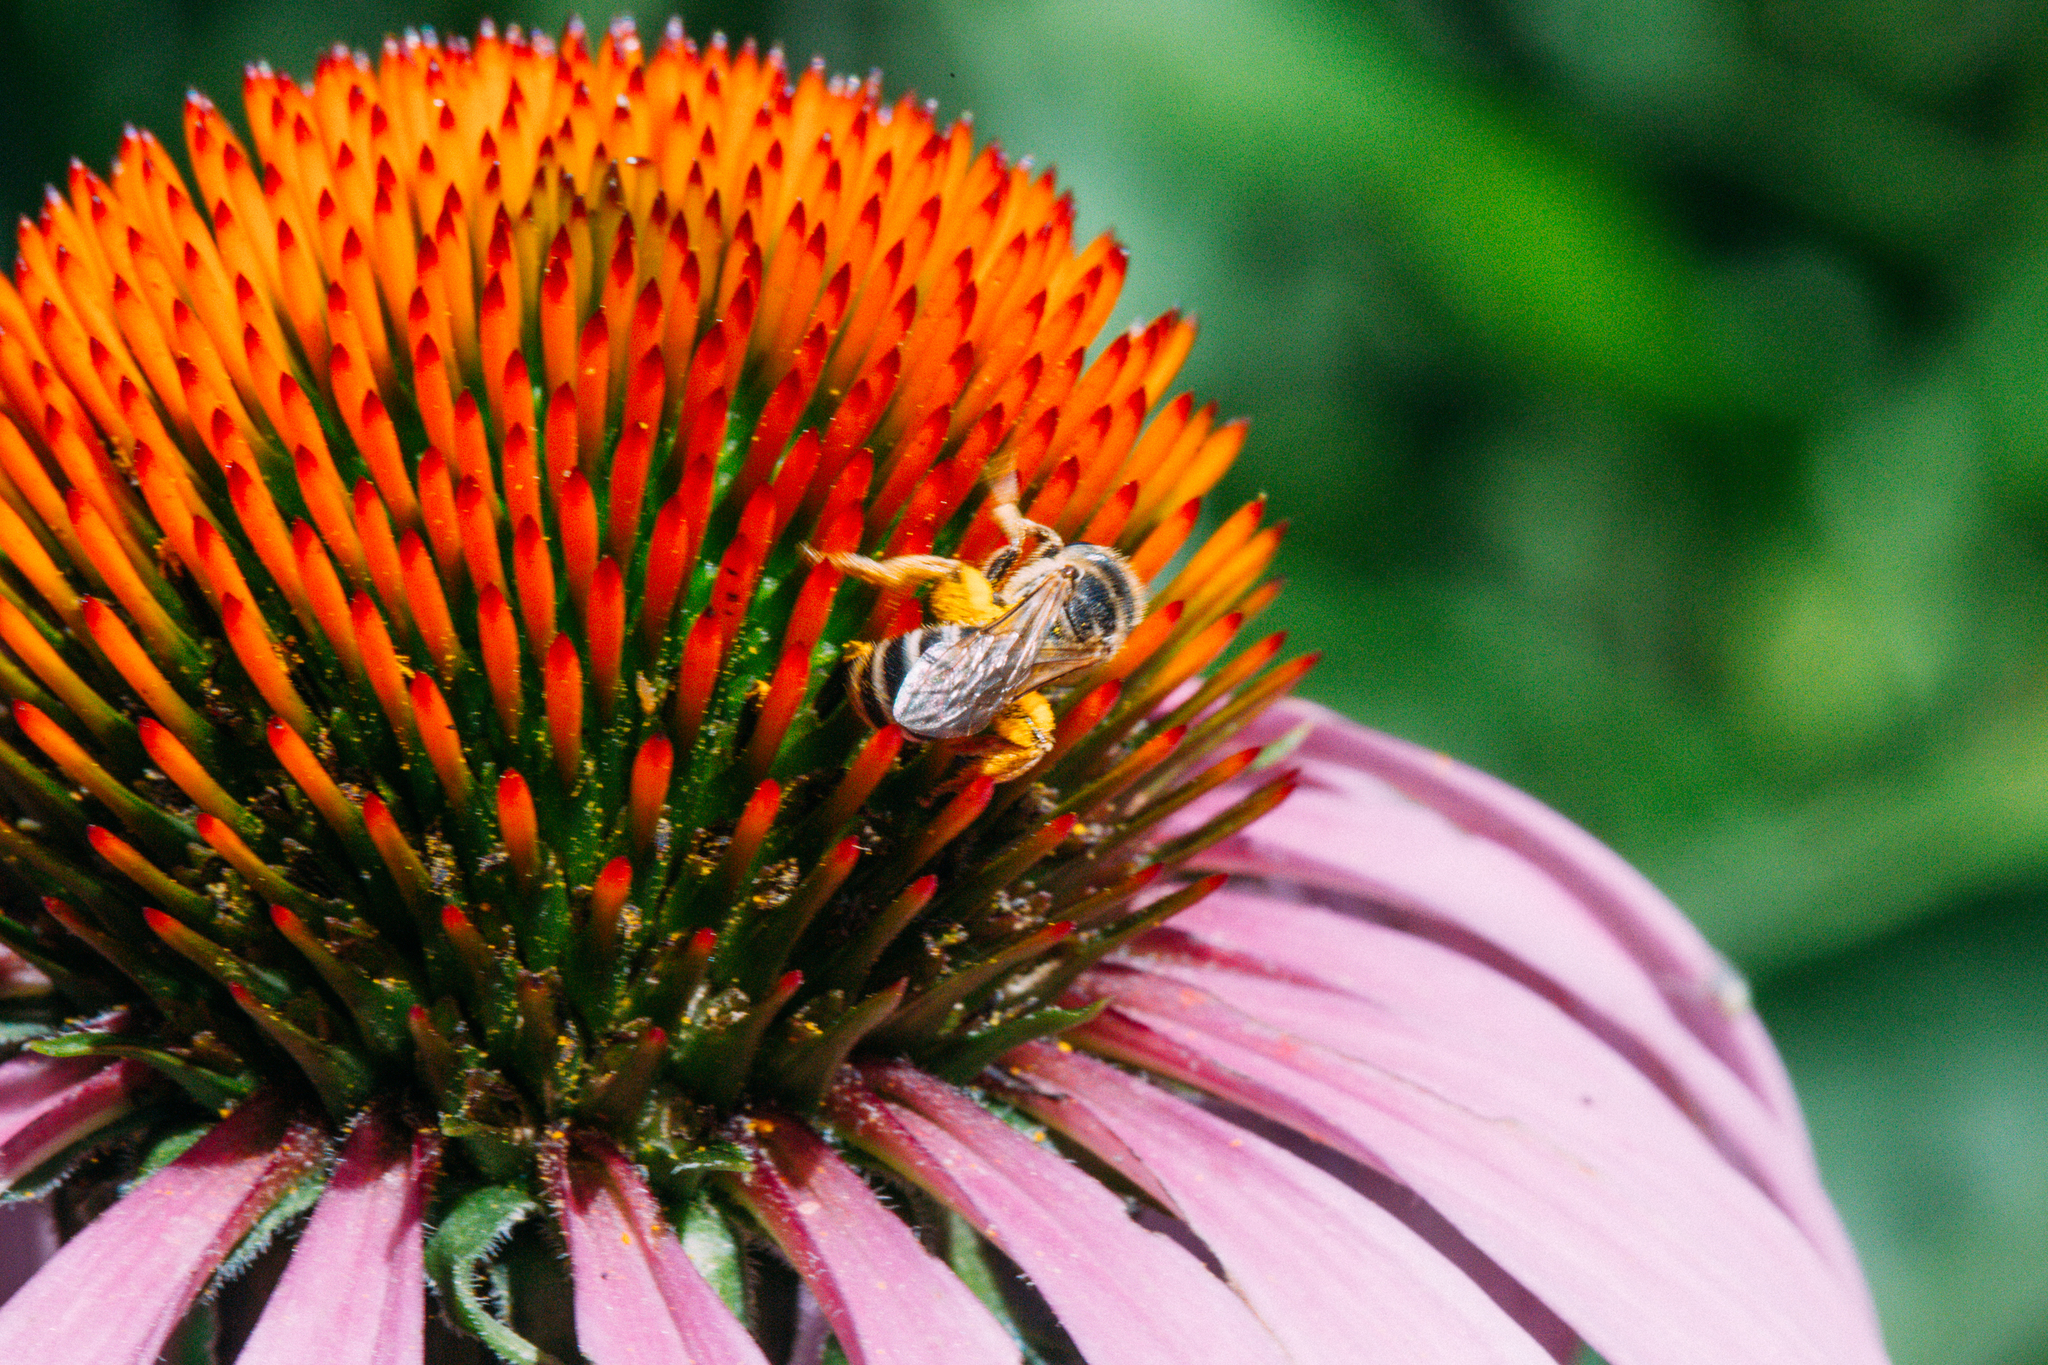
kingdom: Animalia
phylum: Arthropoda
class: Insecta
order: Hymenoptera
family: Halictidae
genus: Halictus
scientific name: Halictus ligatus
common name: Ligated furrow bee
